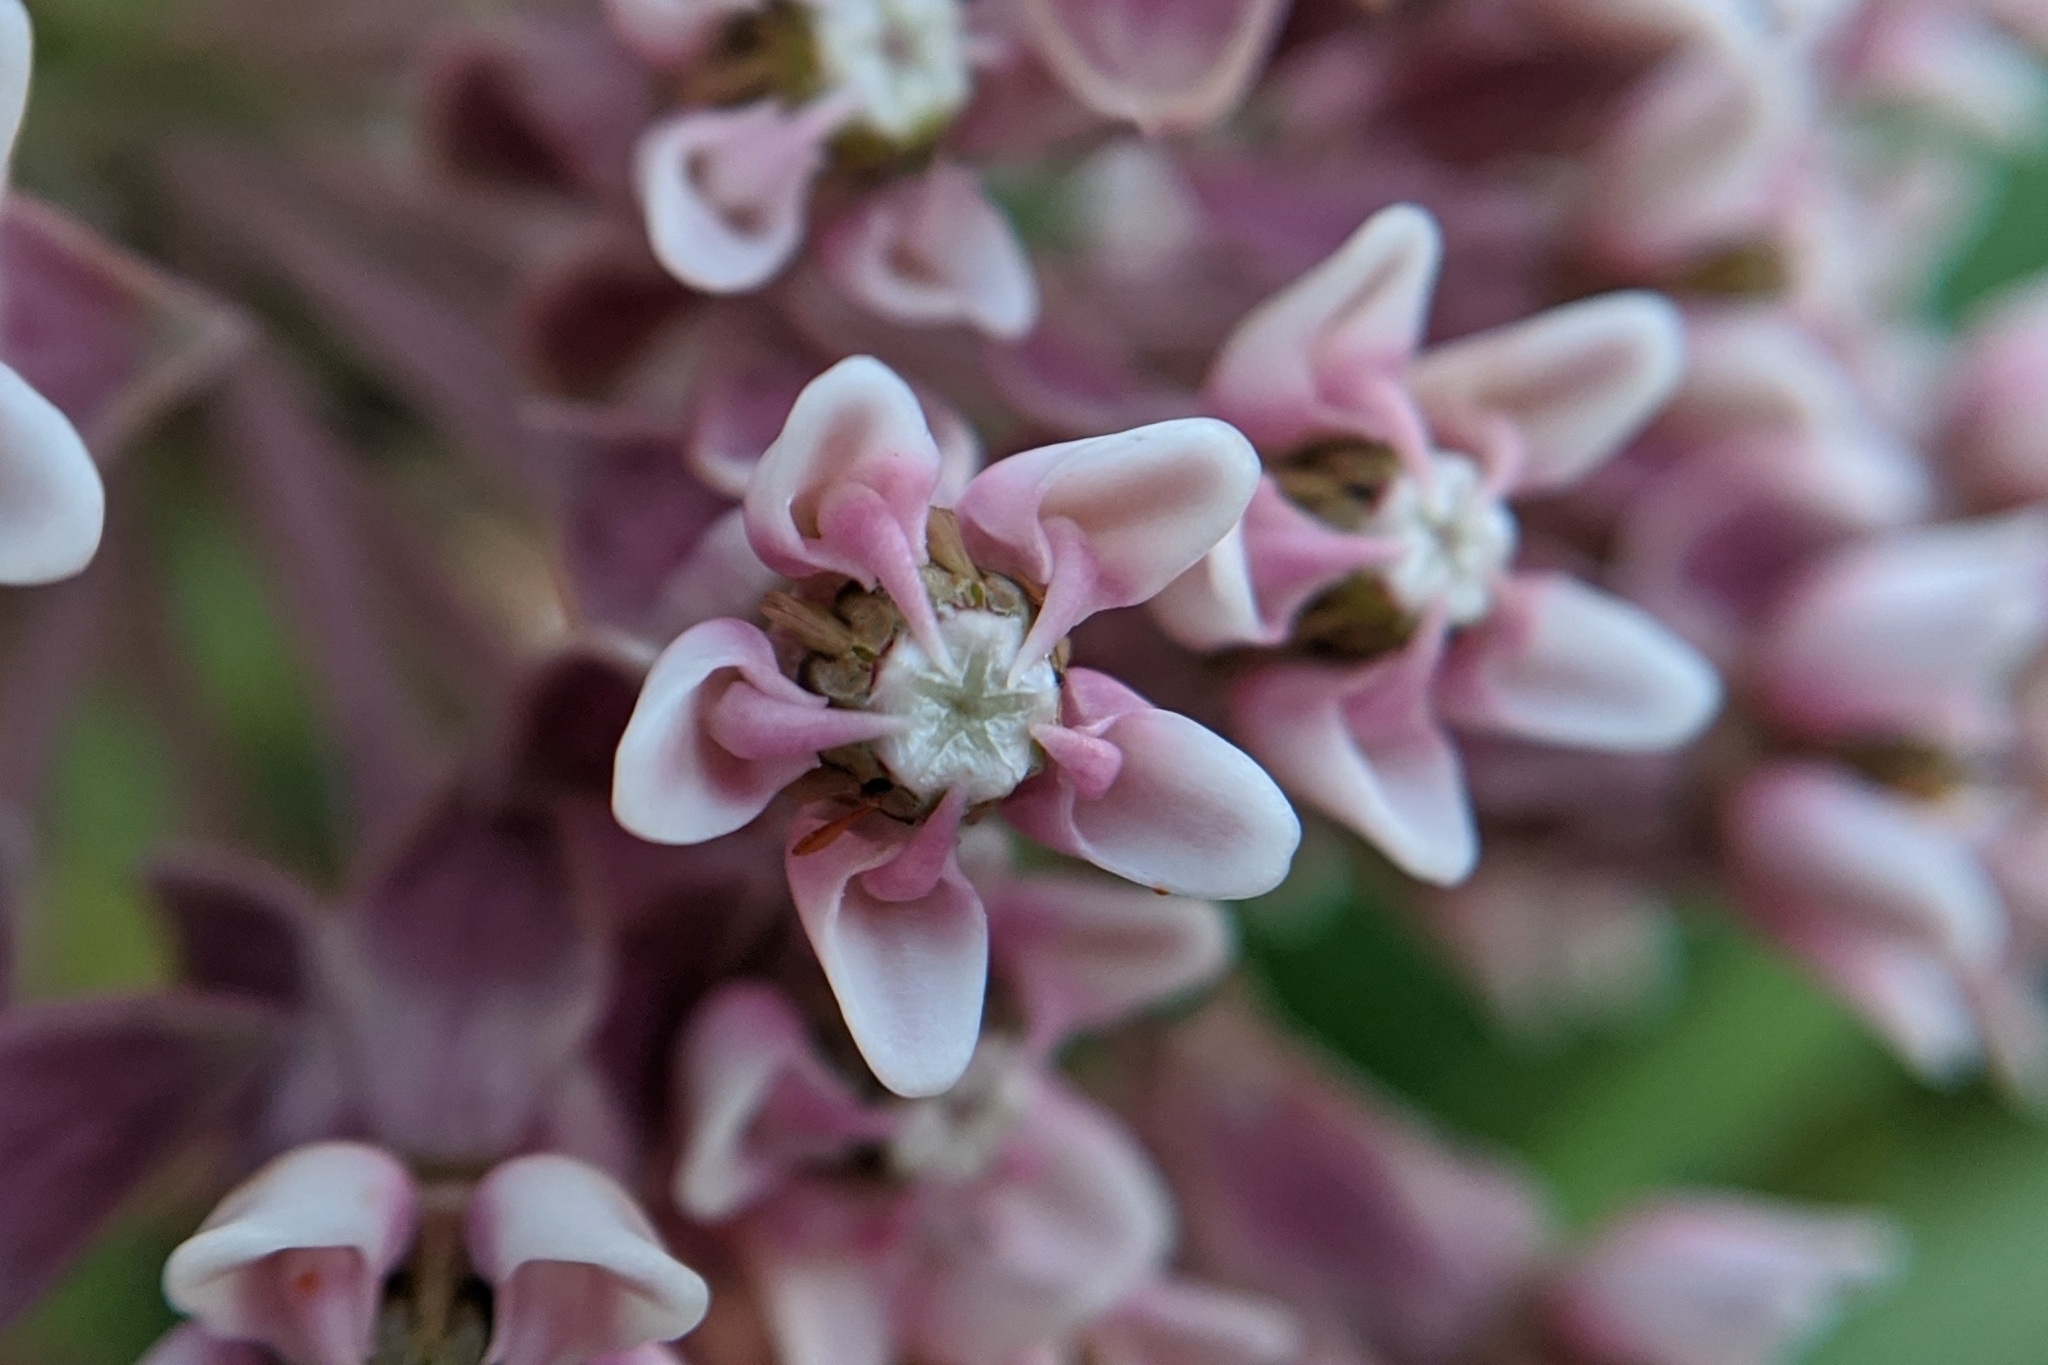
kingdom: Plantae
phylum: Tracheophyta
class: Magnoliopsida
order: Gentianales
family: Apocynaceae
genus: Asclepias
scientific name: Asclepias syriaca
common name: Common milkweed
